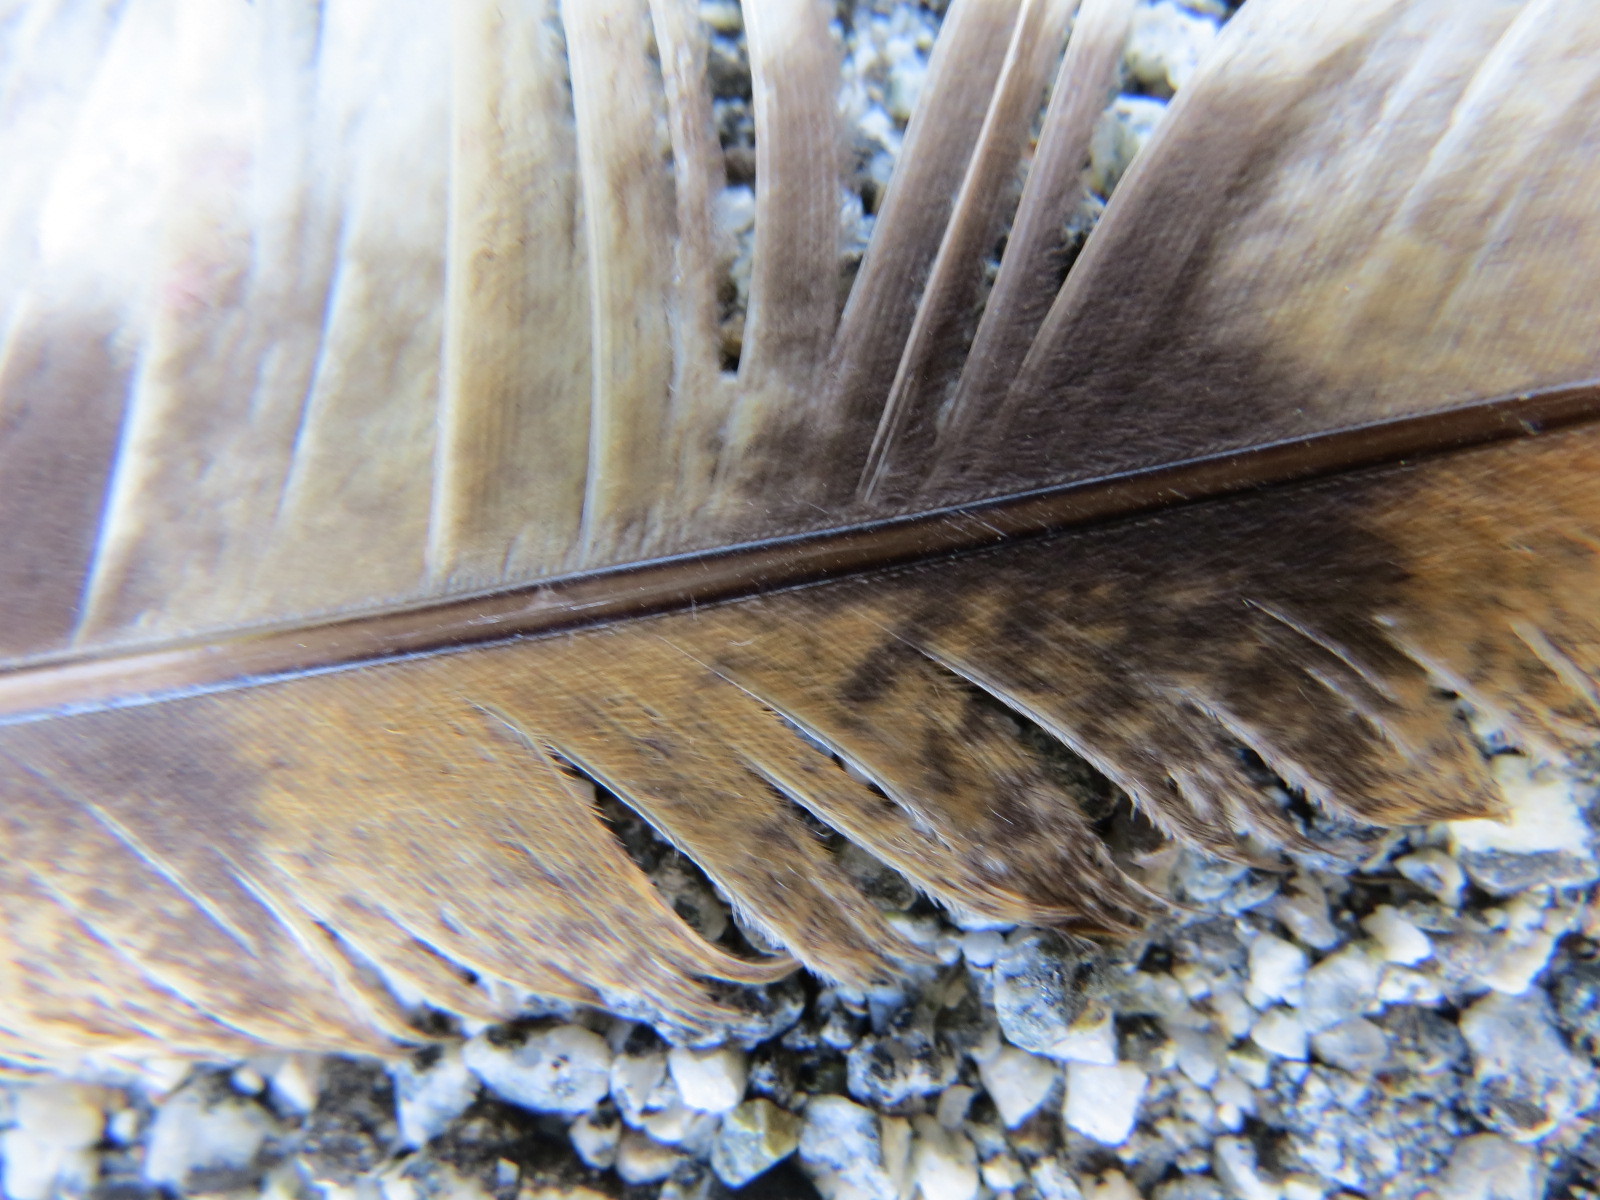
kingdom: Animalia
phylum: Chordata
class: Aves
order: Strigiformes
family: Tytonidae
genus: Tyto
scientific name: Tyto furcata
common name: American barn owl
